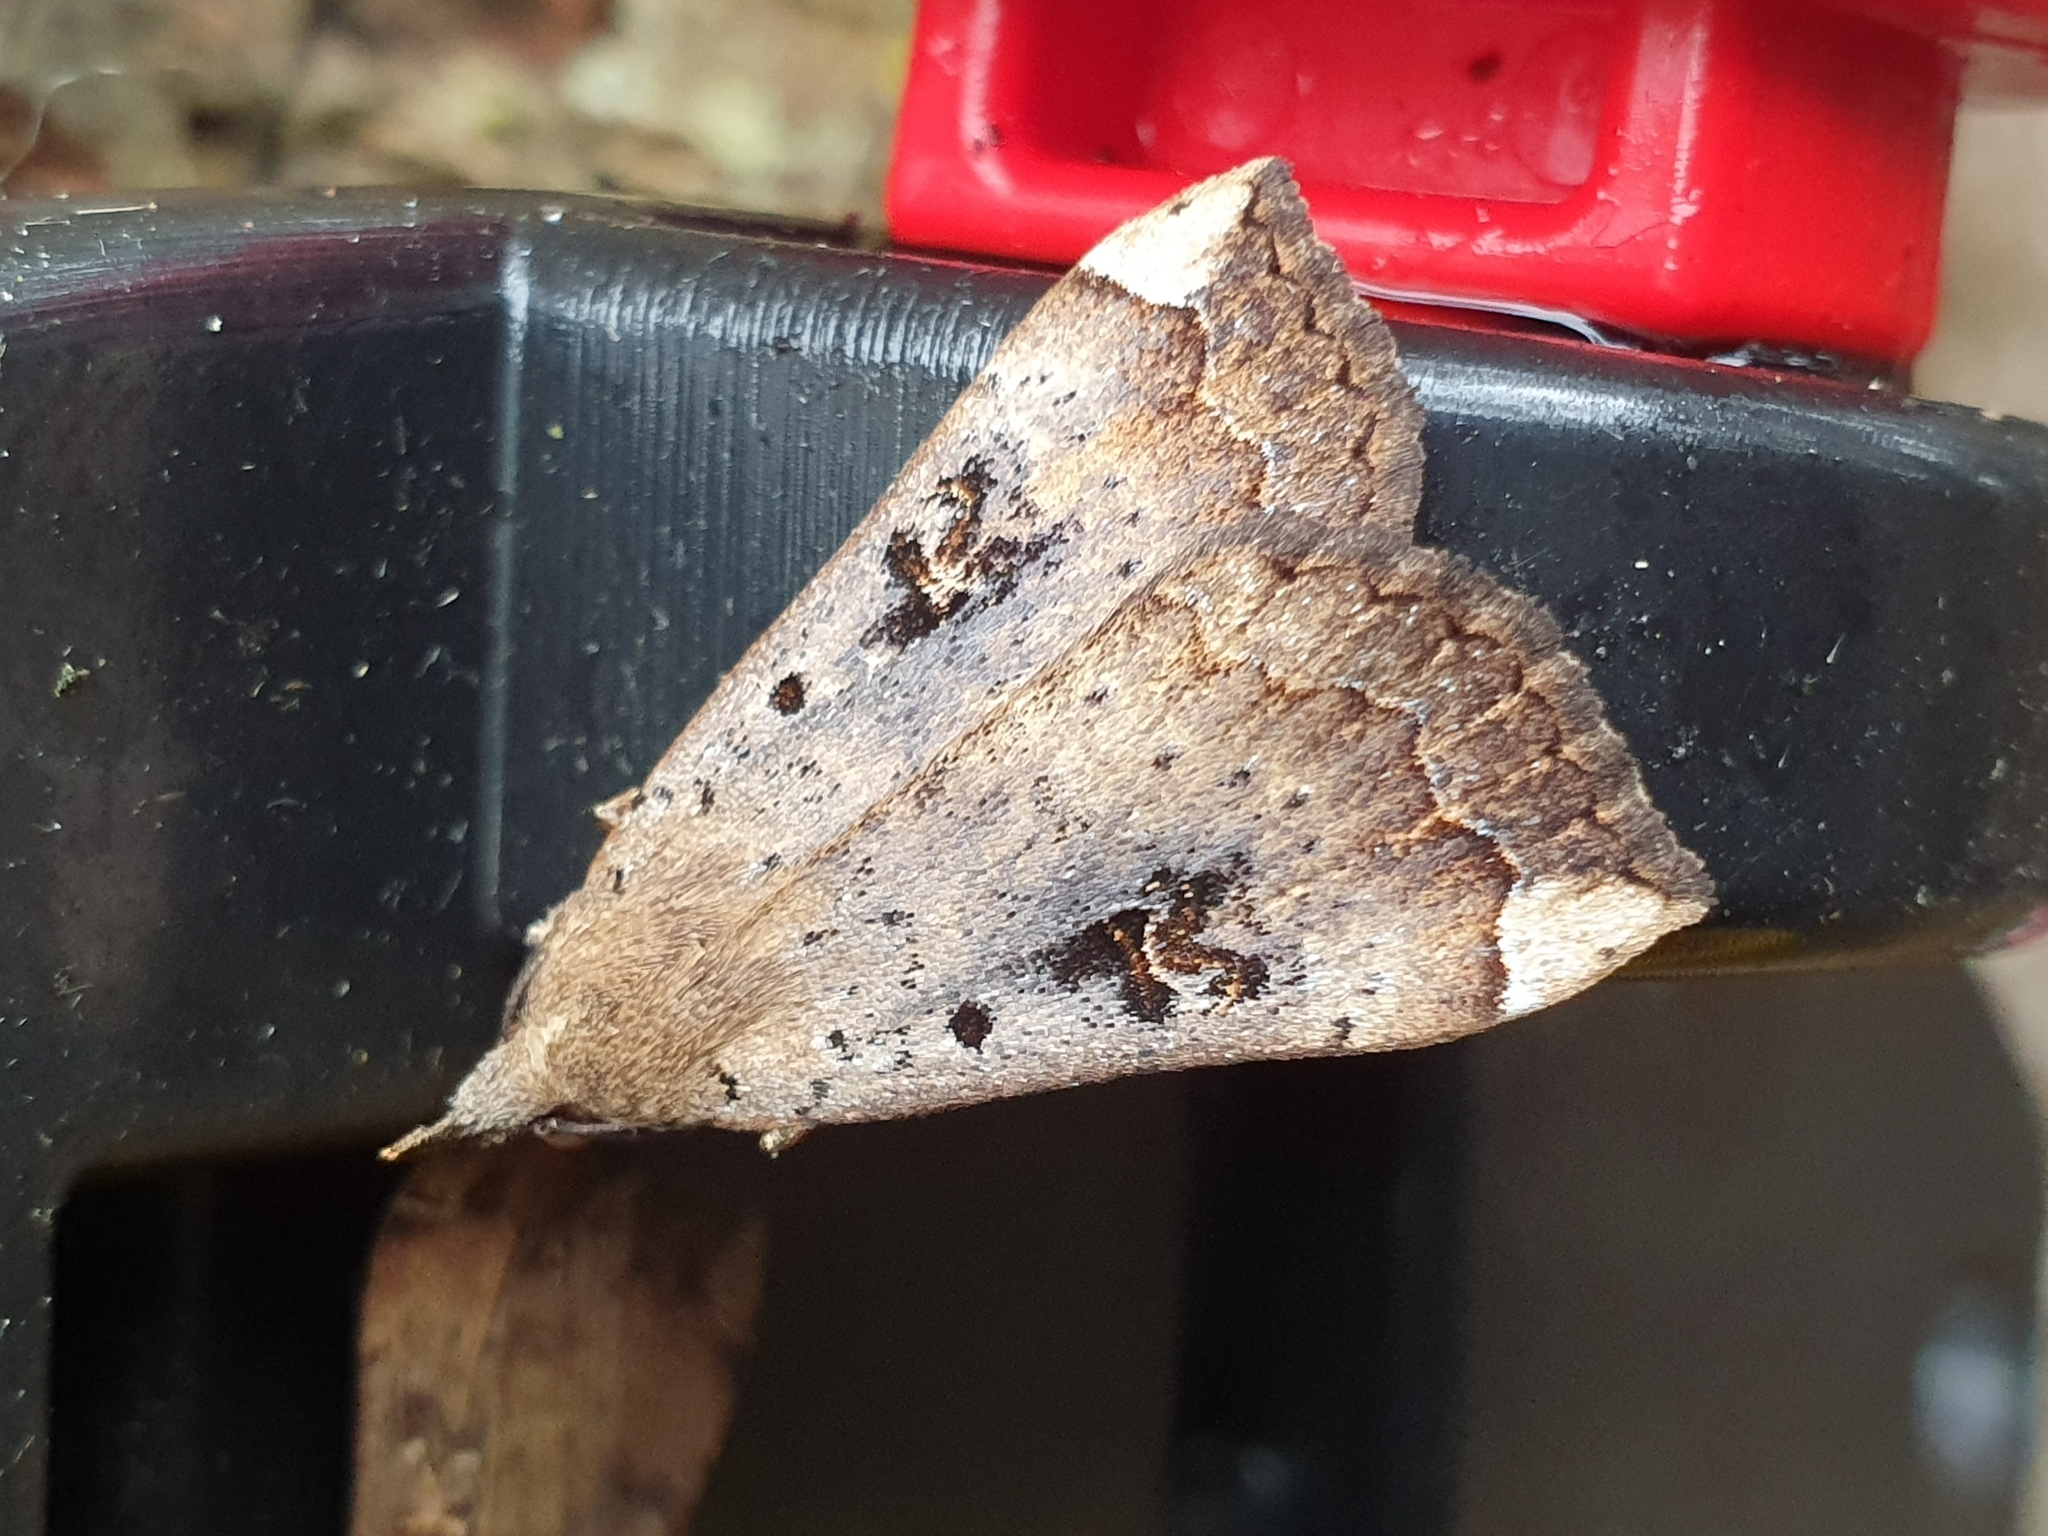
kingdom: Animalia
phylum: Arthropoda
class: Insecta
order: Lepidoptera
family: Erebidae
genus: Rhapsa
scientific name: Rhapsa scotosialis
